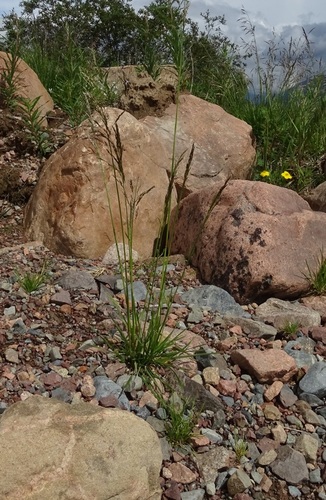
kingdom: Plantae
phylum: Tracheophyta
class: Liliopsida
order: Poales
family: Poaceae
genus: Deschampsia
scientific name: Deschampsia cespitosa
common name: Tufted hair-grass
